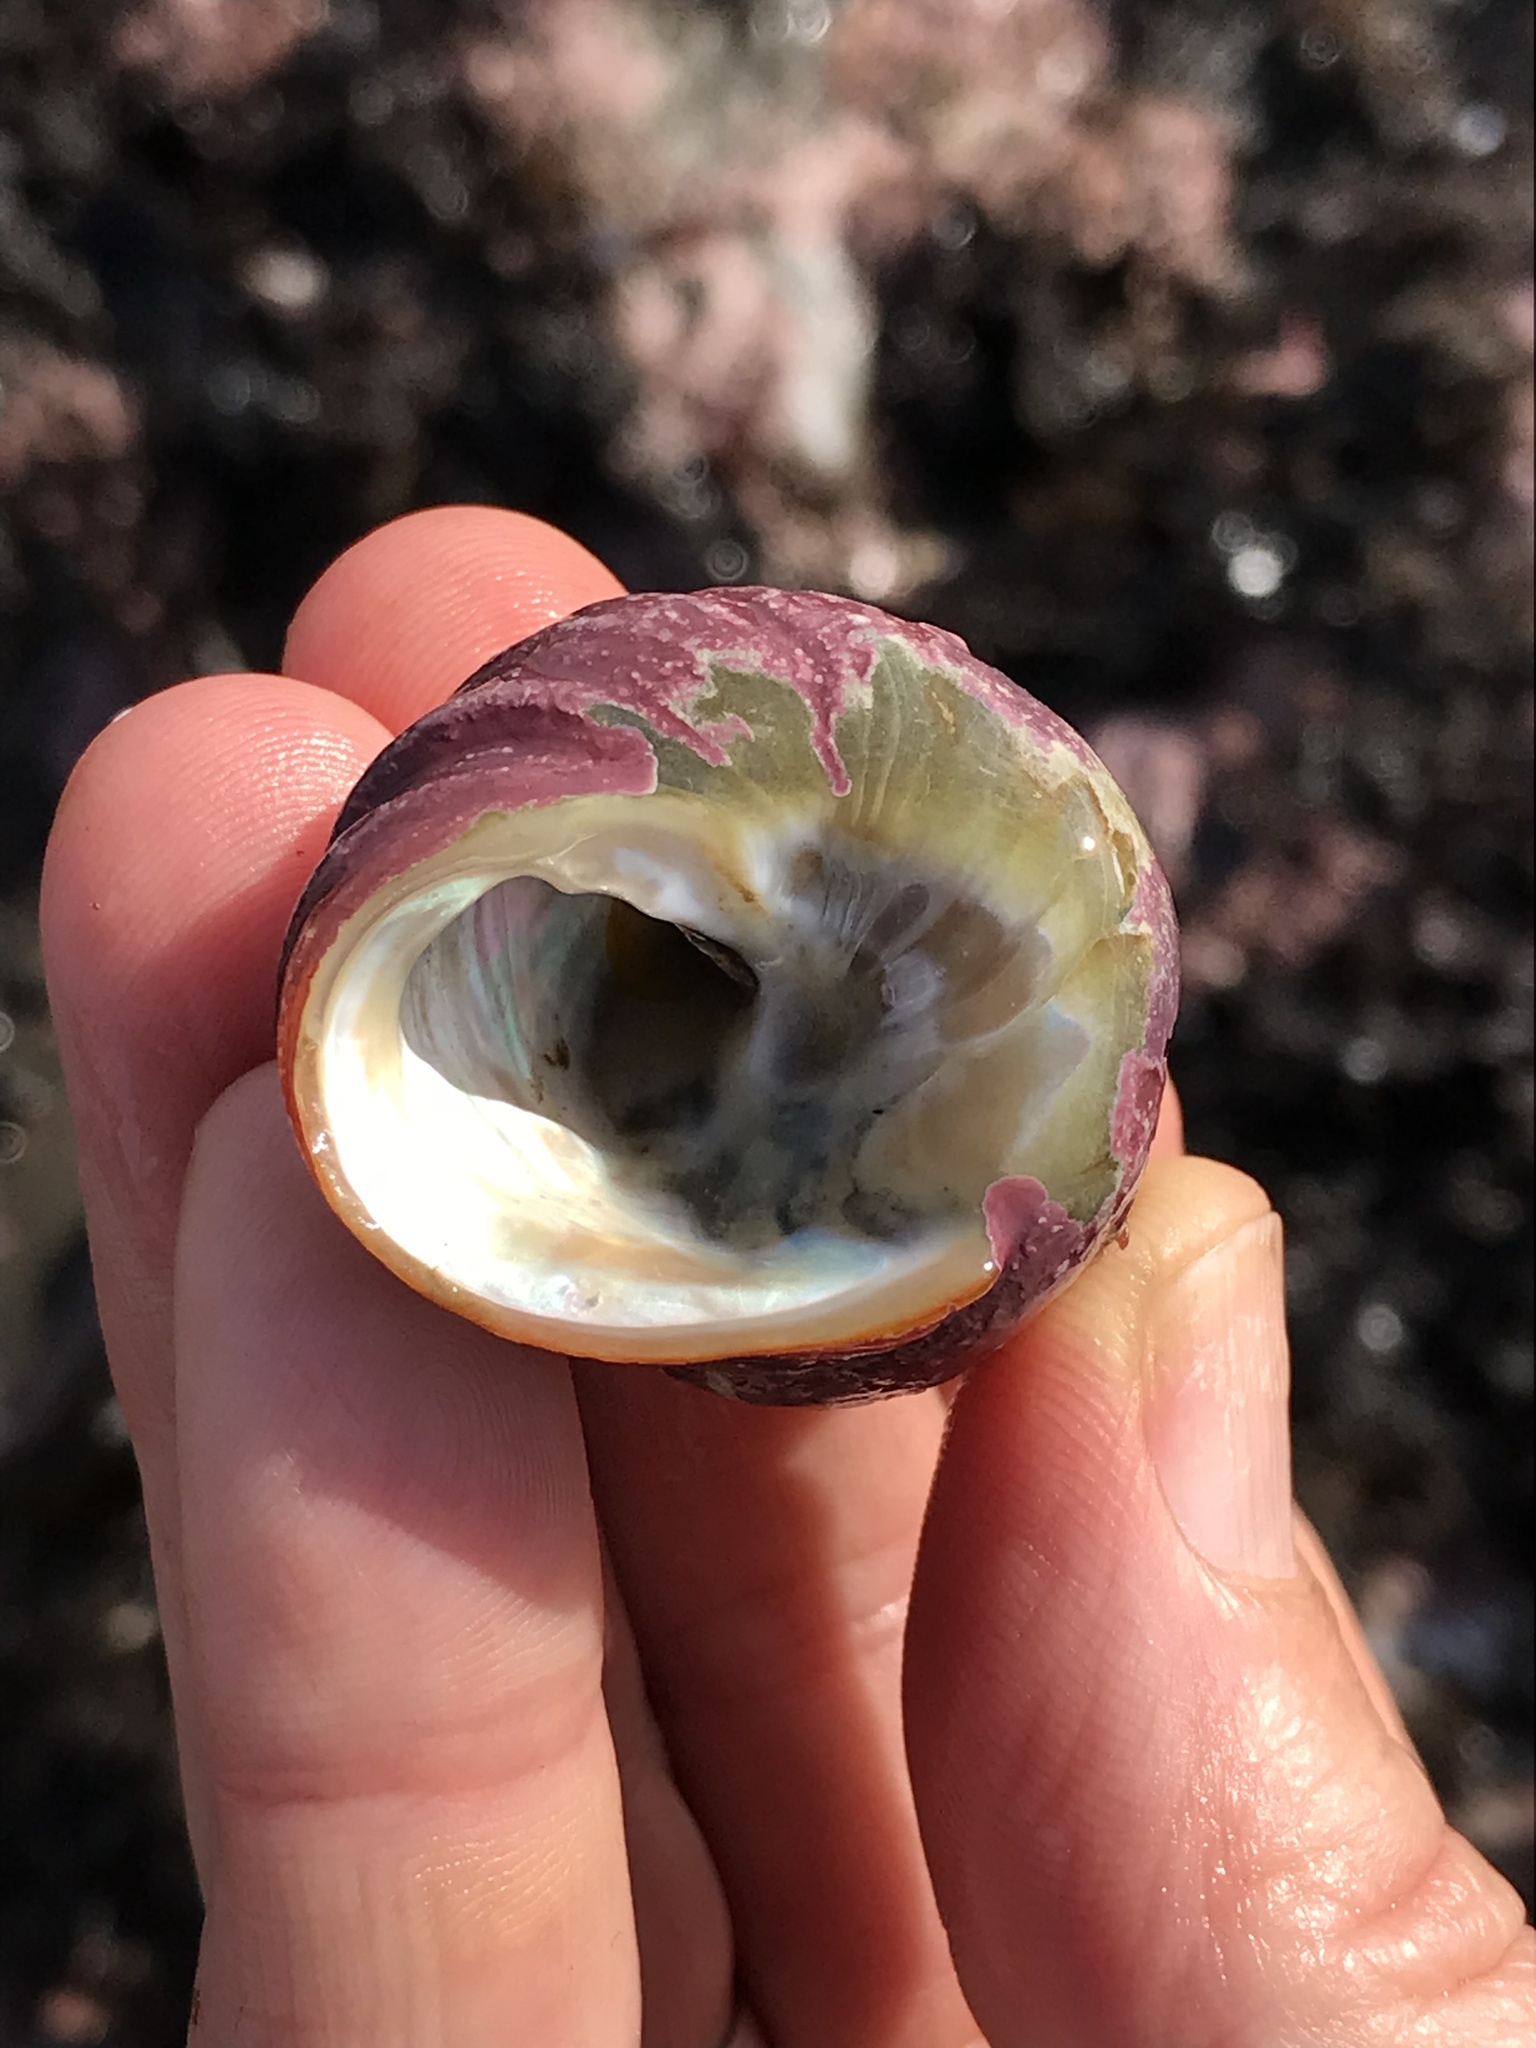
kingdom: Animalia
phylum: Mollusca
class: Gastropoda
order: Trochida
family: Tegulidae
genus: Tegula
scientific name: Tegula brunnea
